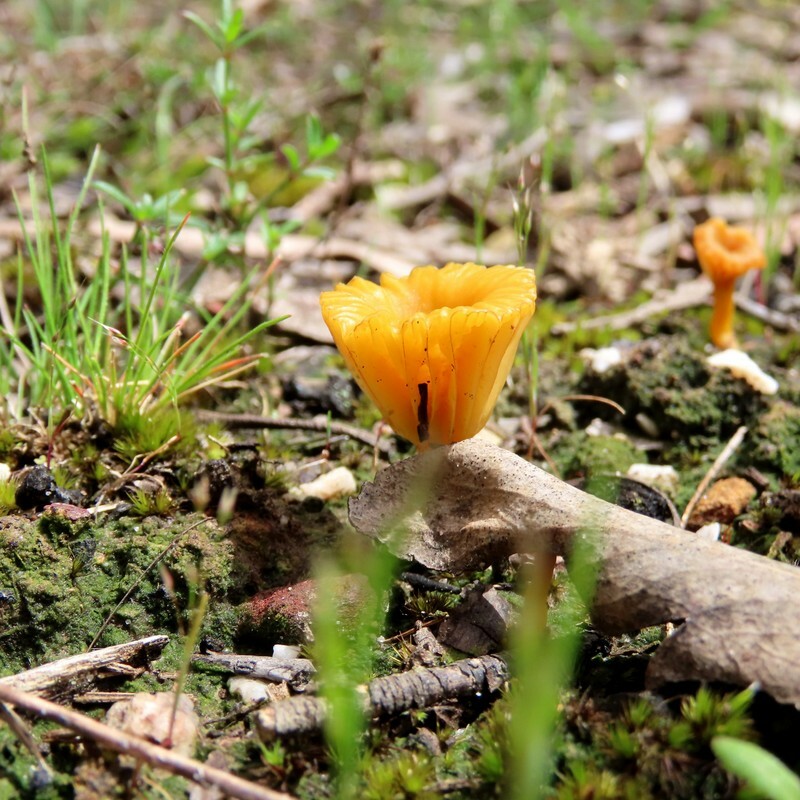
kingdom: Fungi
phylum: Basidiomycota
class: Agaricomycetes
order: Agaricales
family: Hygrophoraceae
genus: Lichenomphalia
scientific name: Lichenomphalia chromacea
